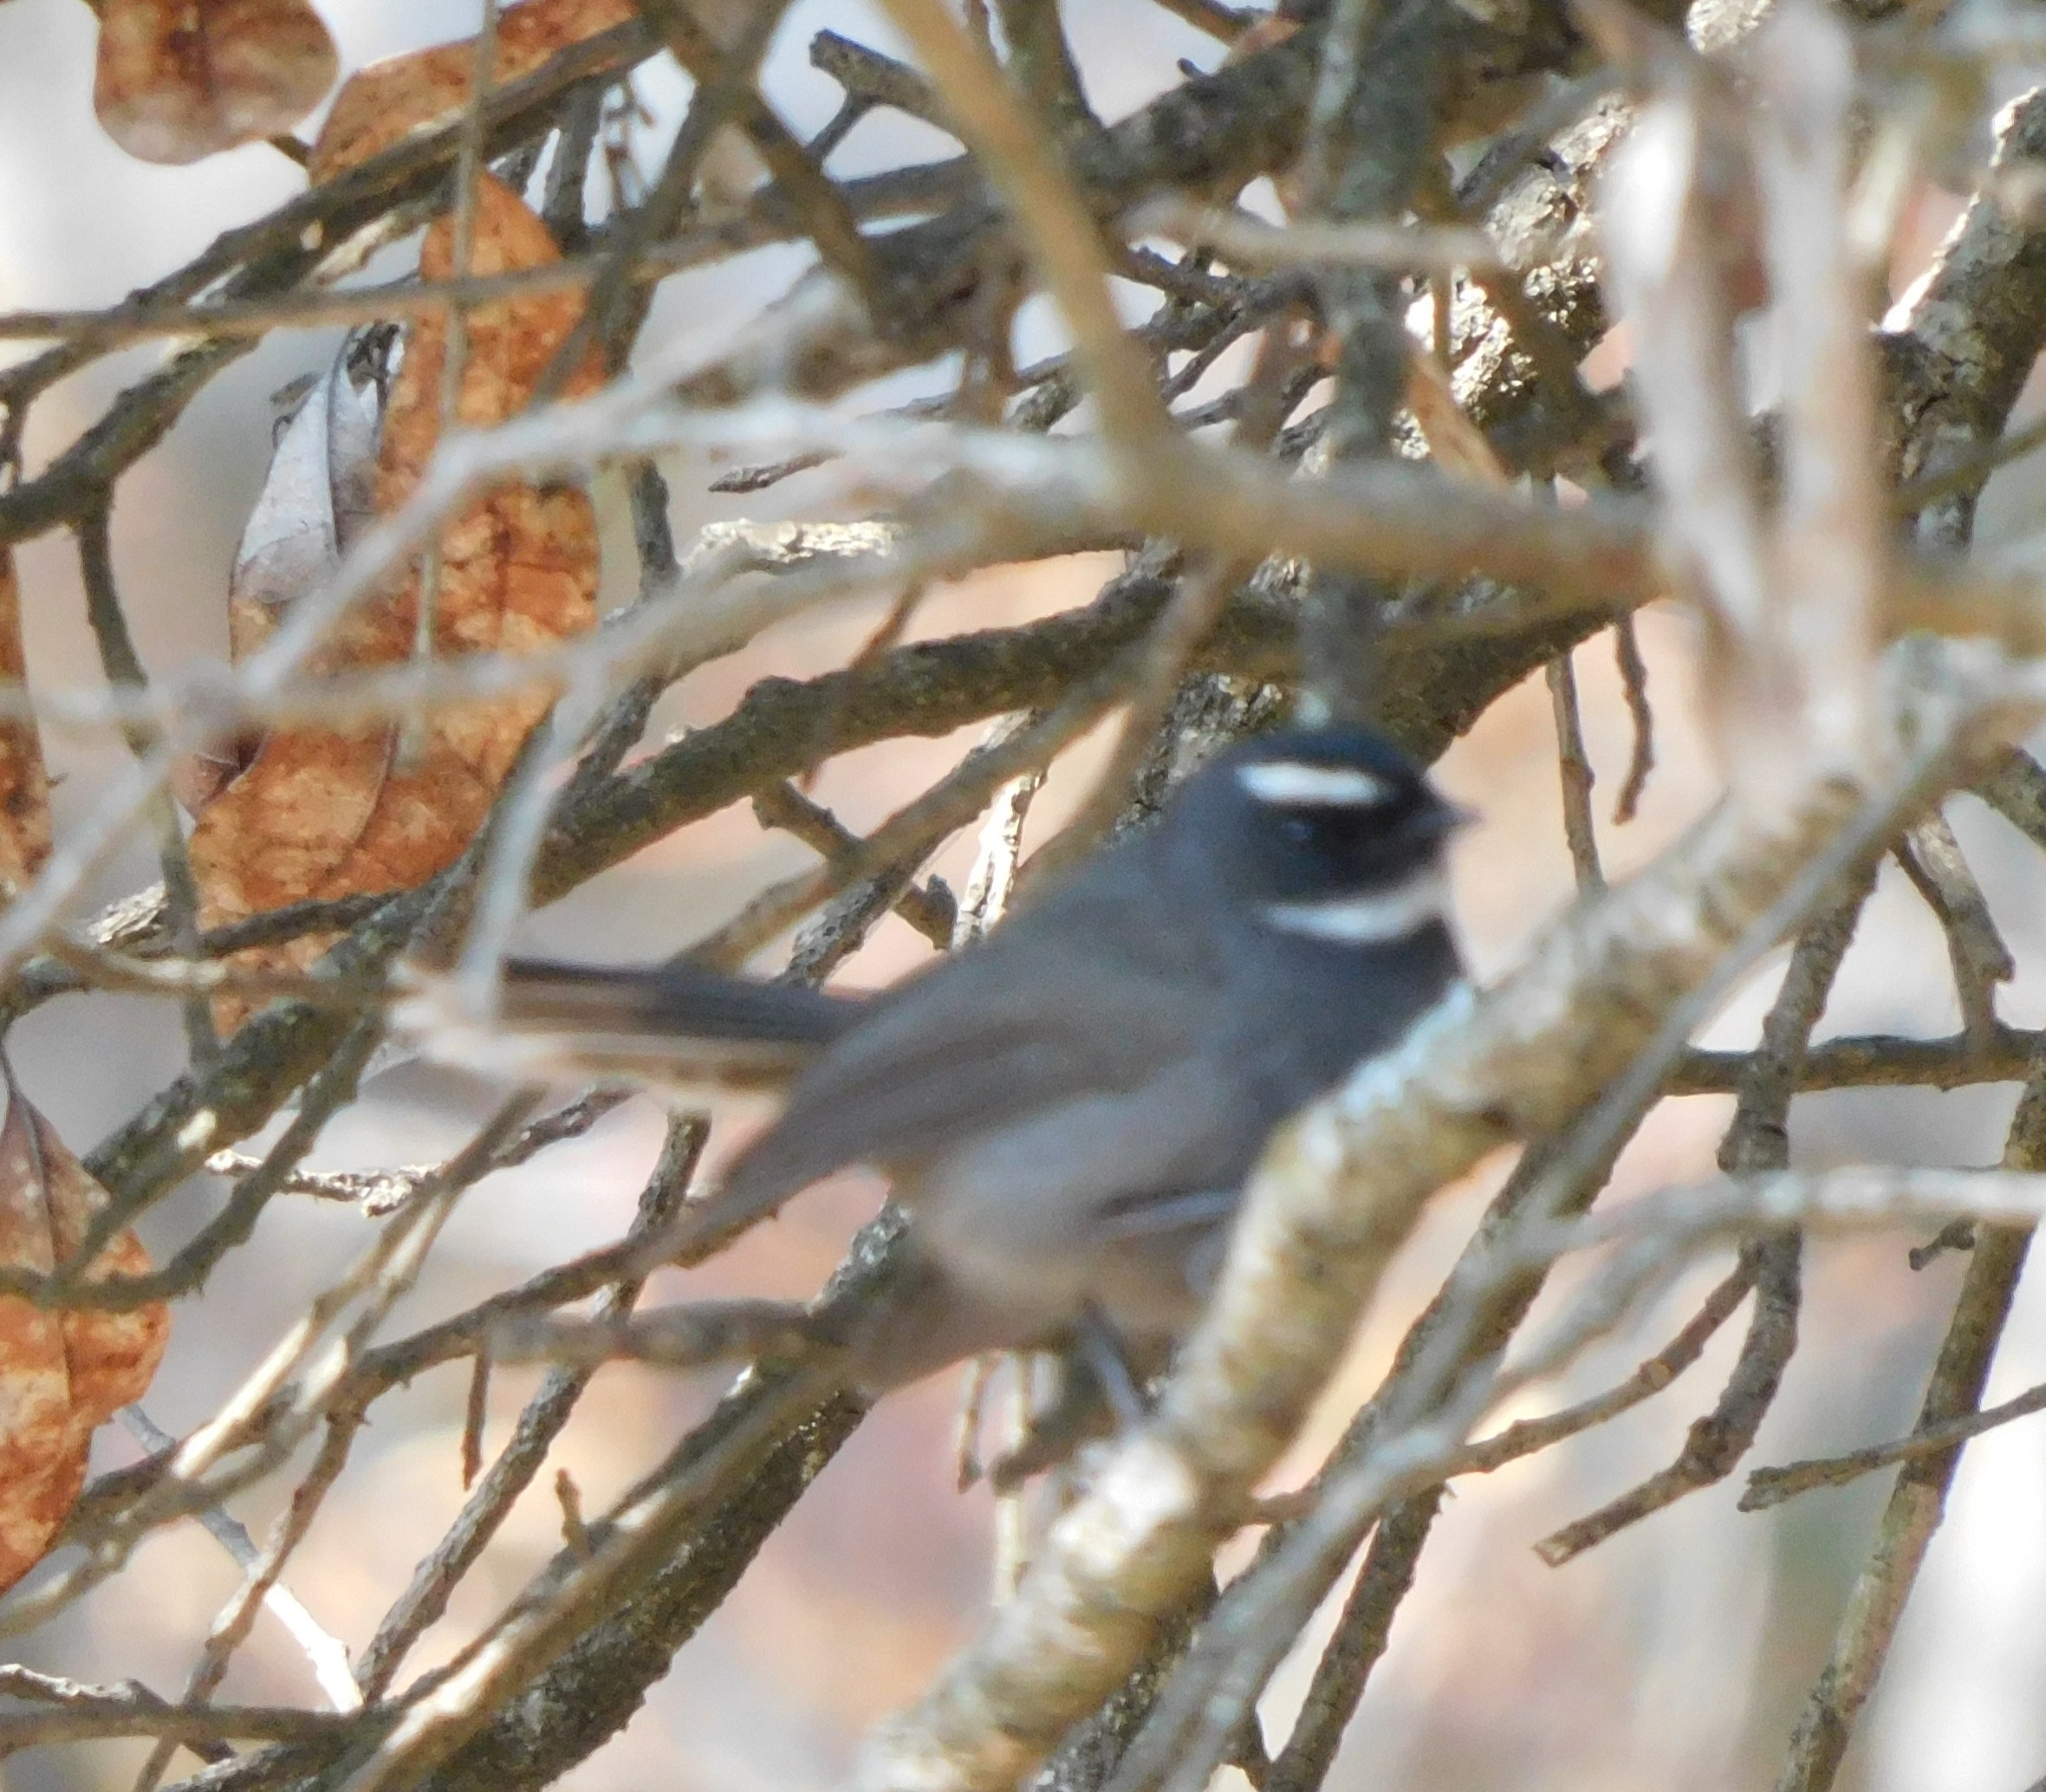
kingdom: Animalia
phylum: Chordata
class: Aves
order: Passeriformes
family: Rhipiduridae
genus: Rhipidura
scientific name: Rhipidura albicollis
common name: White-throated fantail
